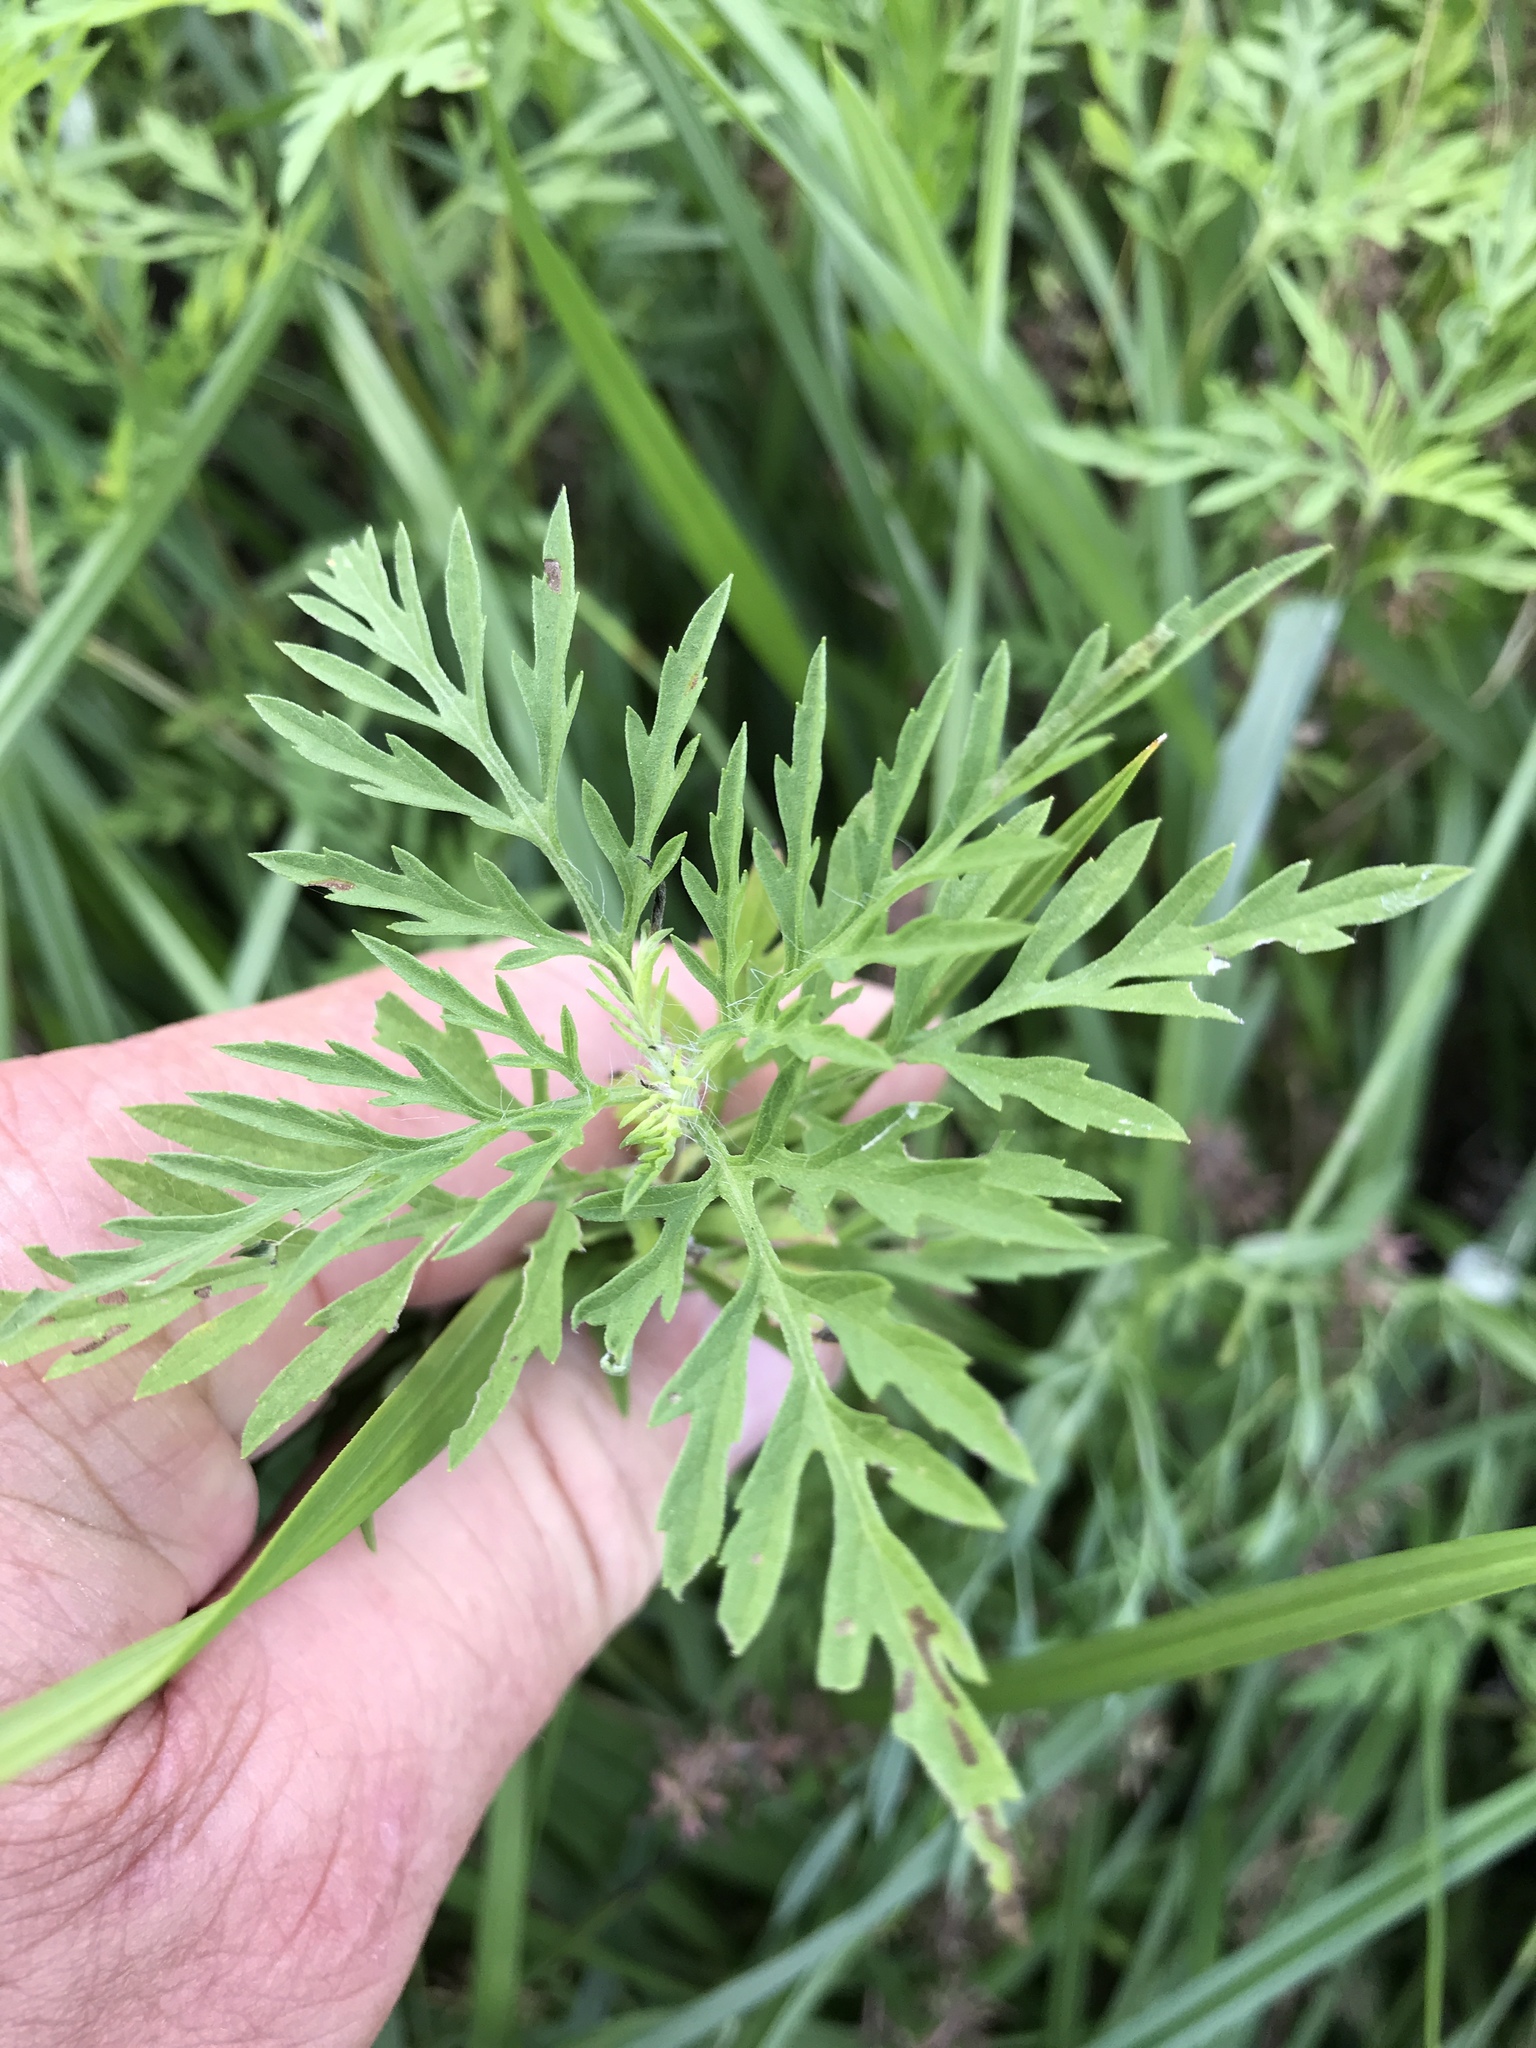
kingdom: Plantae
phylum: Tracheophyta
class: Magnoliopsida
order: Asterales
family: Asteraceae
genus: Ambrosia
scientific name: Ambrosia artemisiifolia
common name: Annual ragweed
